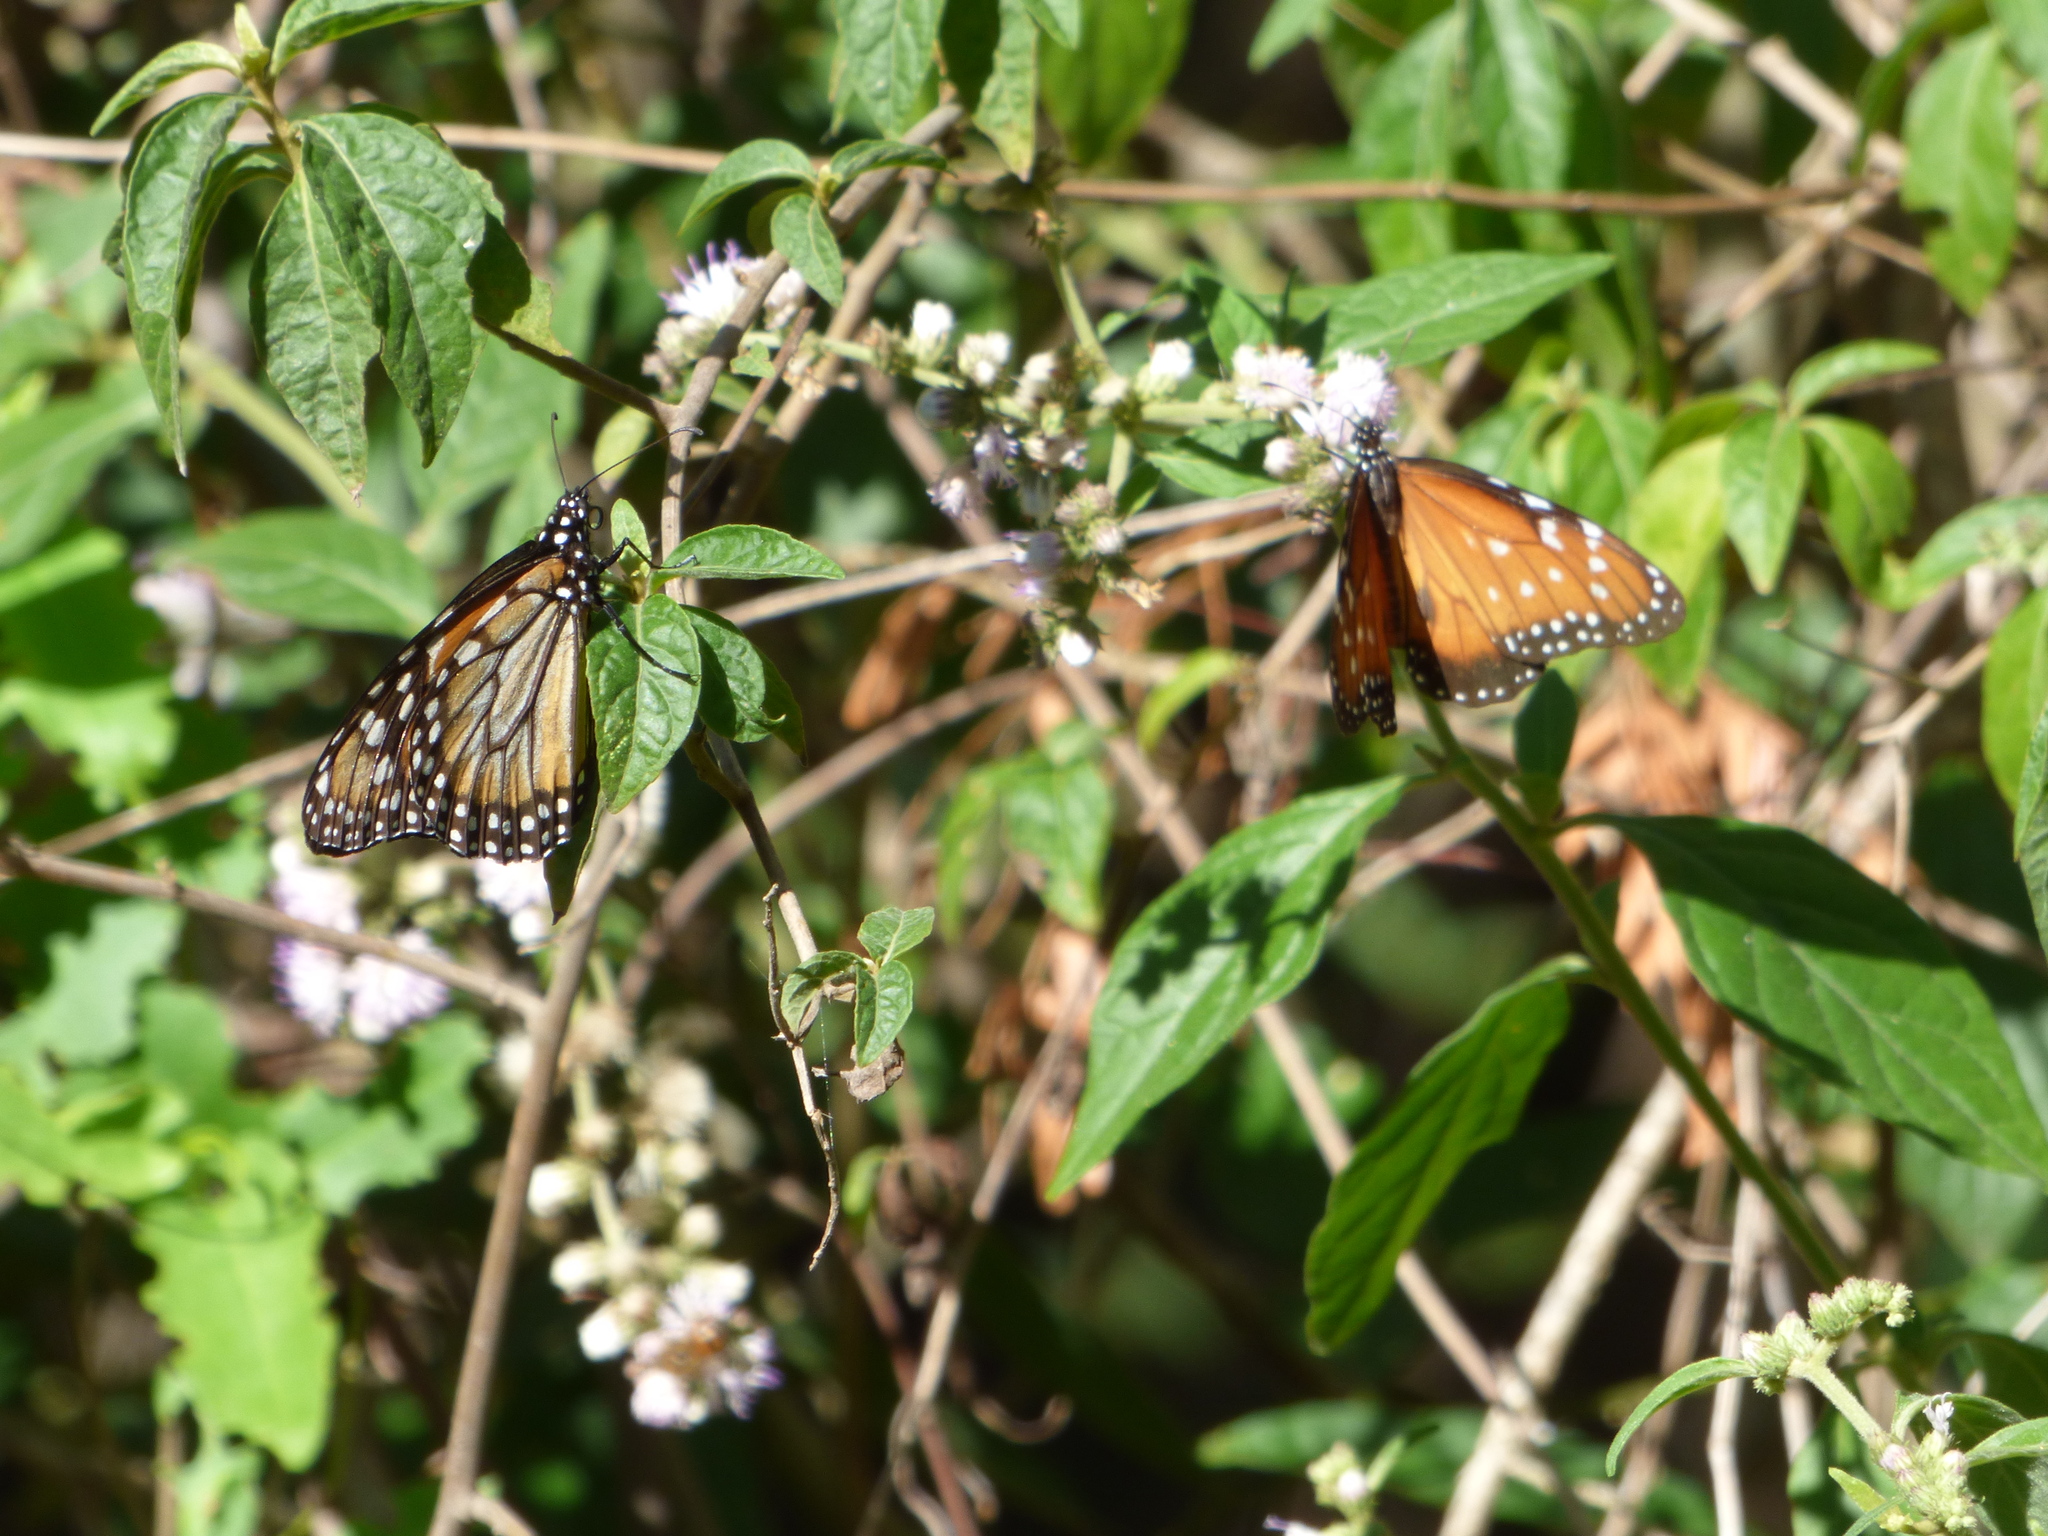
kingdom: Animalia
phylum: Arthropoda
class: Insecta
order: Lepidoptera
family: Nymphalidae
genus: Danaus
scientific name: Danaus erippus
